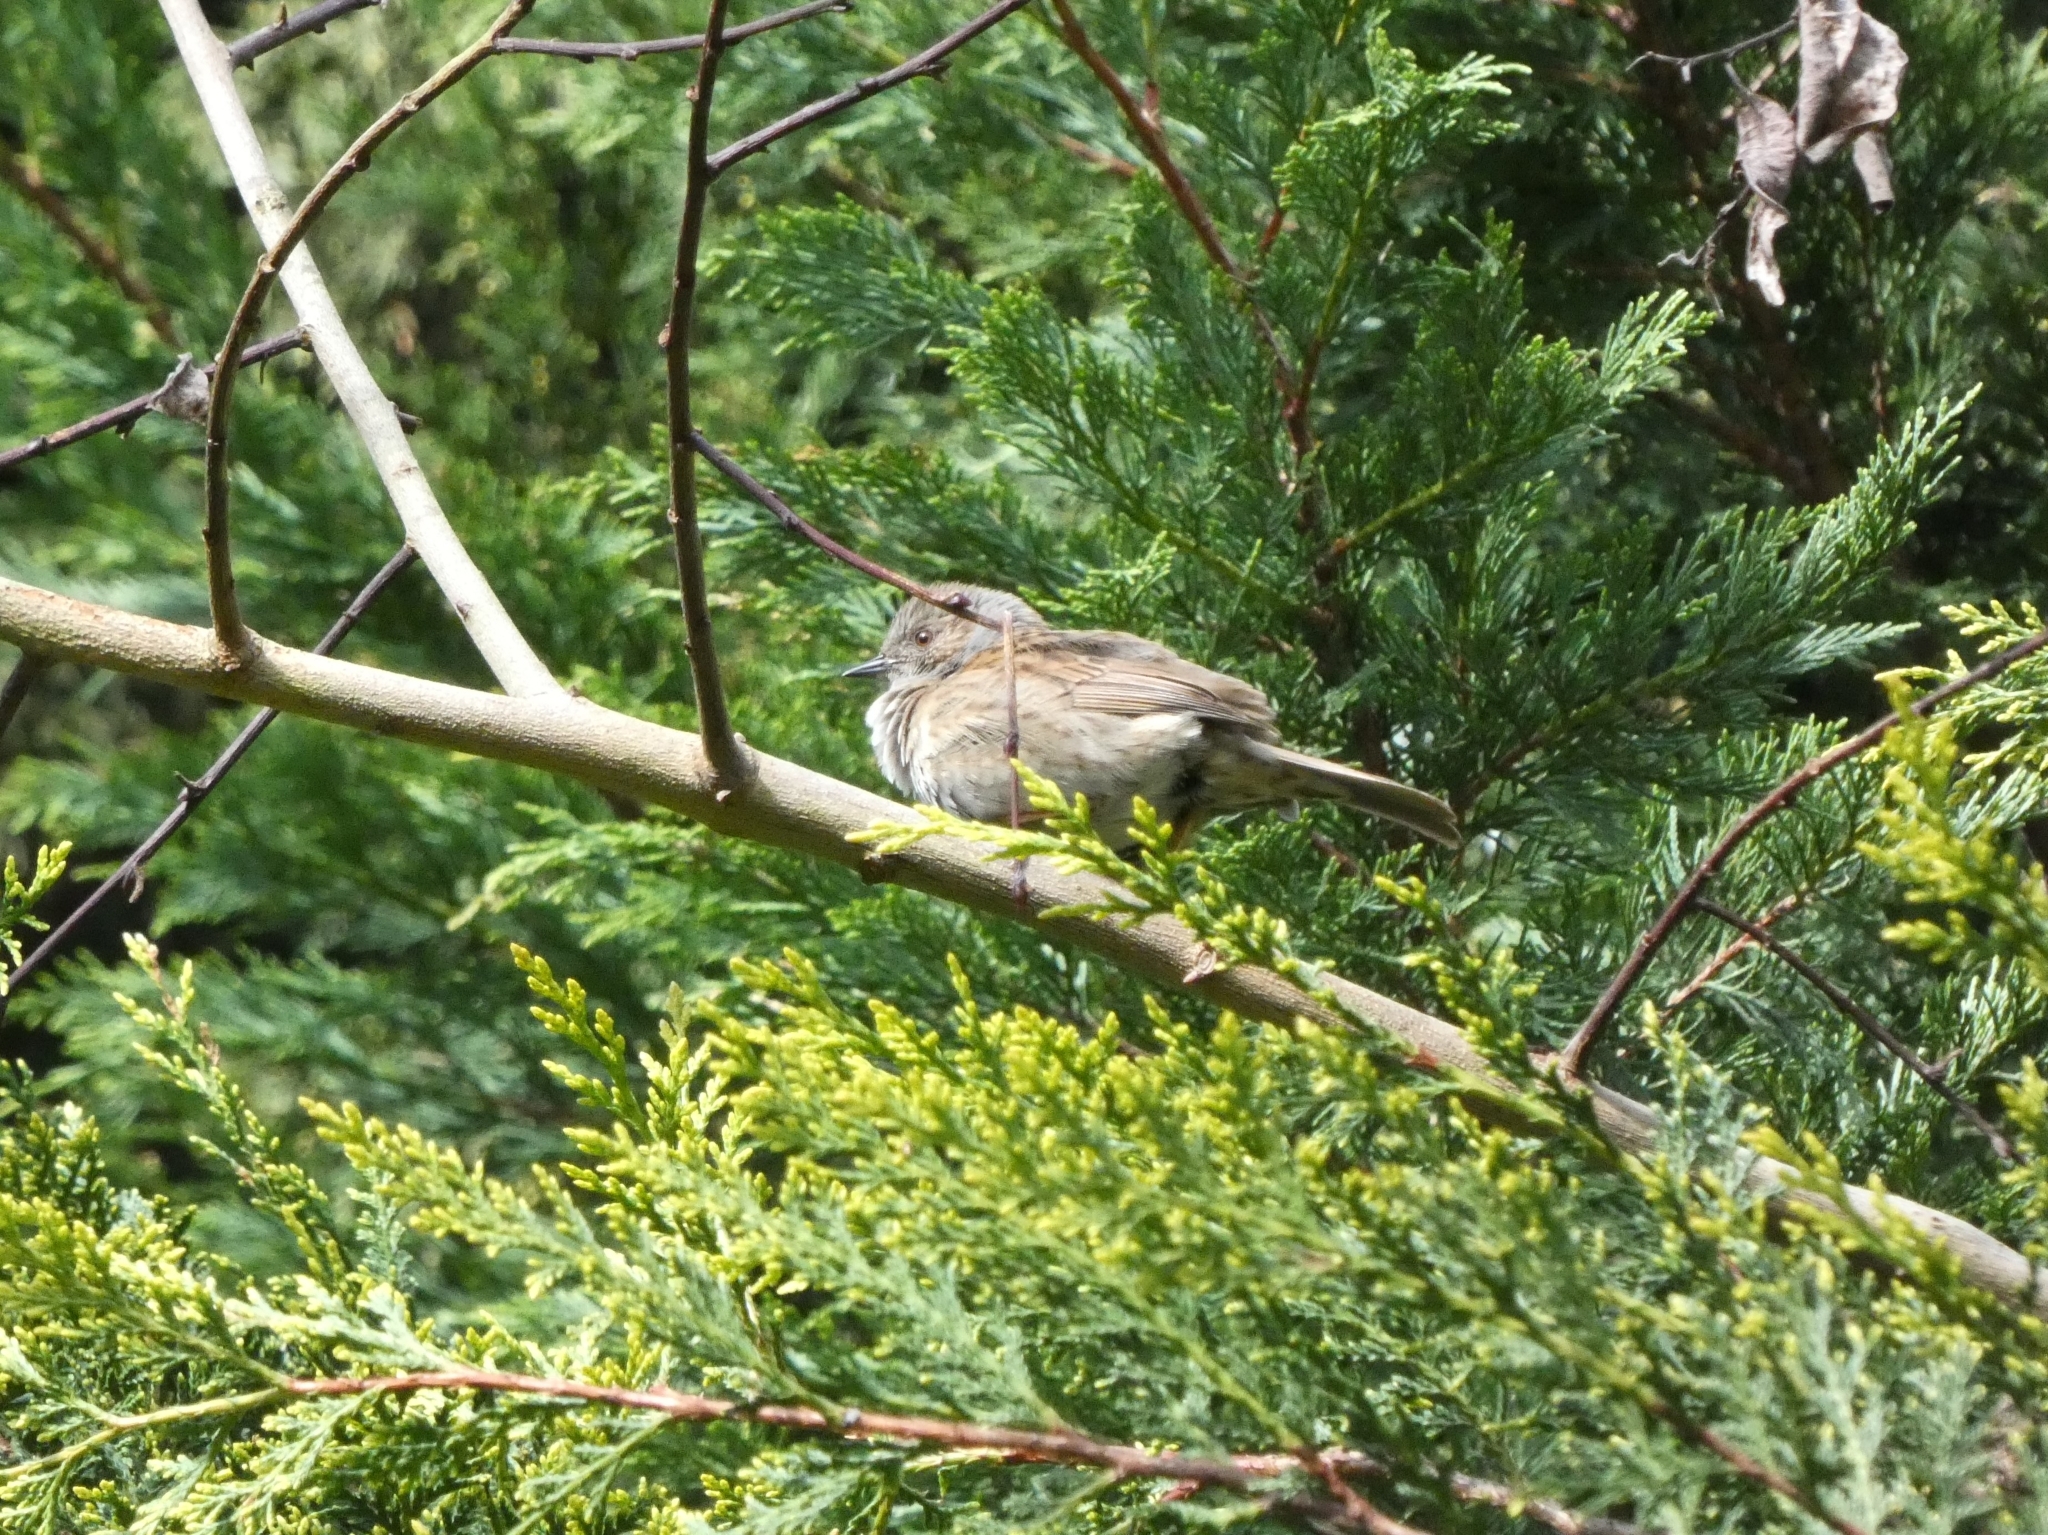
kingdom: Animalia
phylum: Chordata
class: Aves
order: Passeriformes
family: Prunellidae
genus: Prunella
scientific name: Prunella modularis
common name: Dunnock
